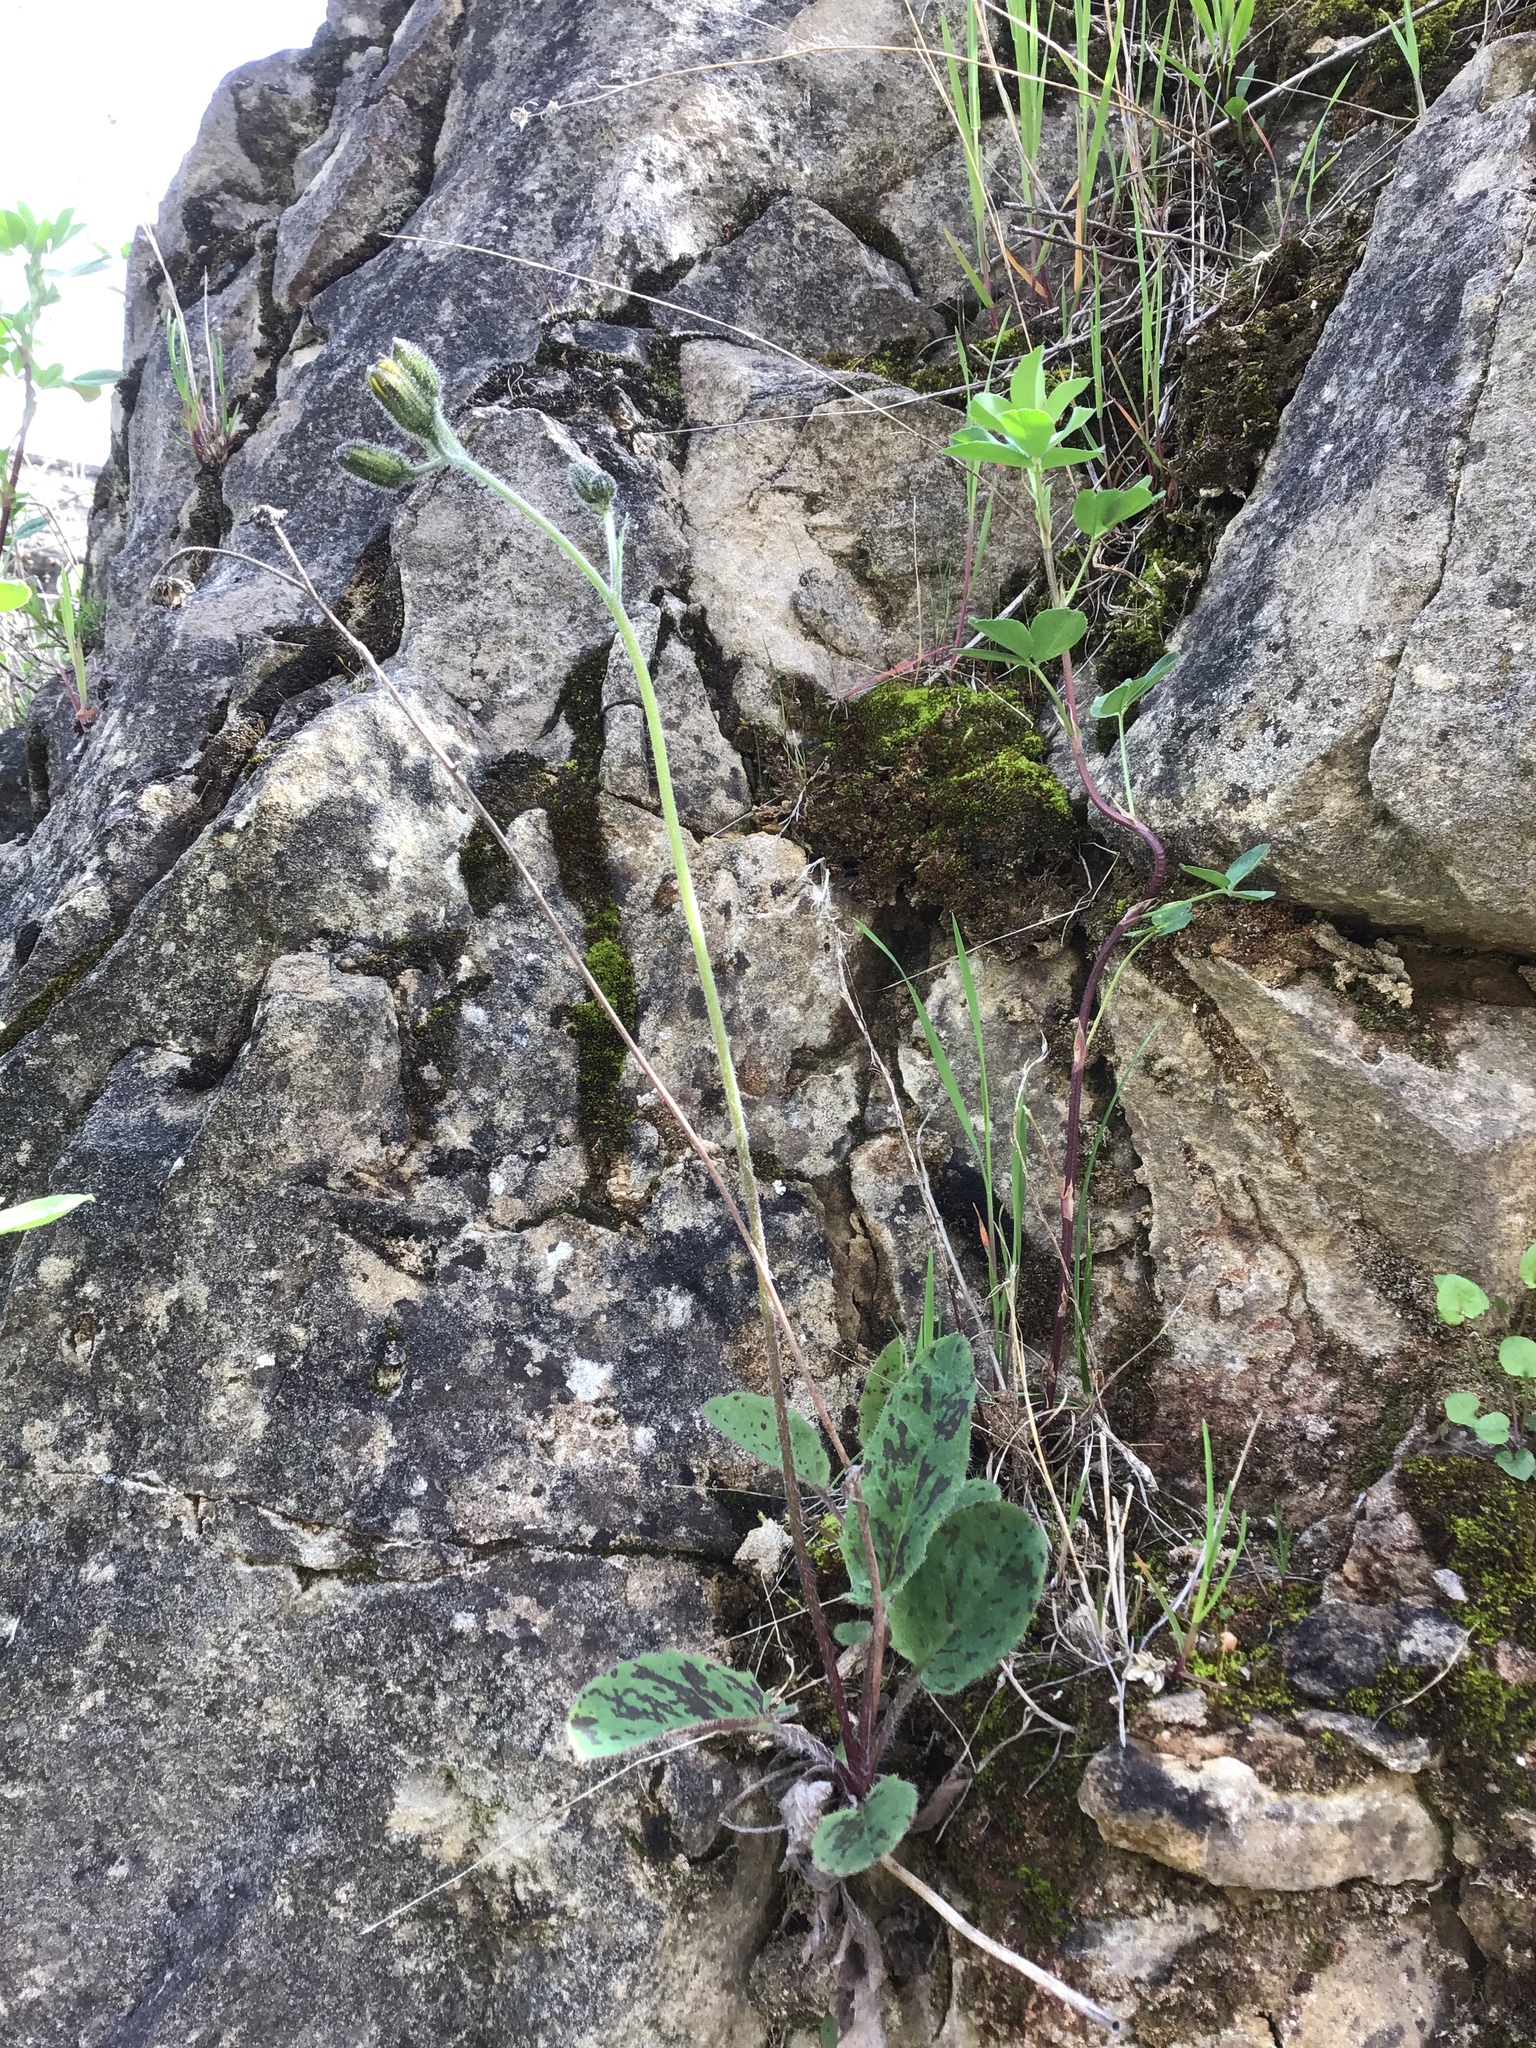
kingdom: Plantae
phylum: Tracheophyta
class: Magnoliopsida
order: Asterales
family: Asteraceae
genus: Hieracium
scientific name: Hieracium murorum
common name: Wall hawkweed
